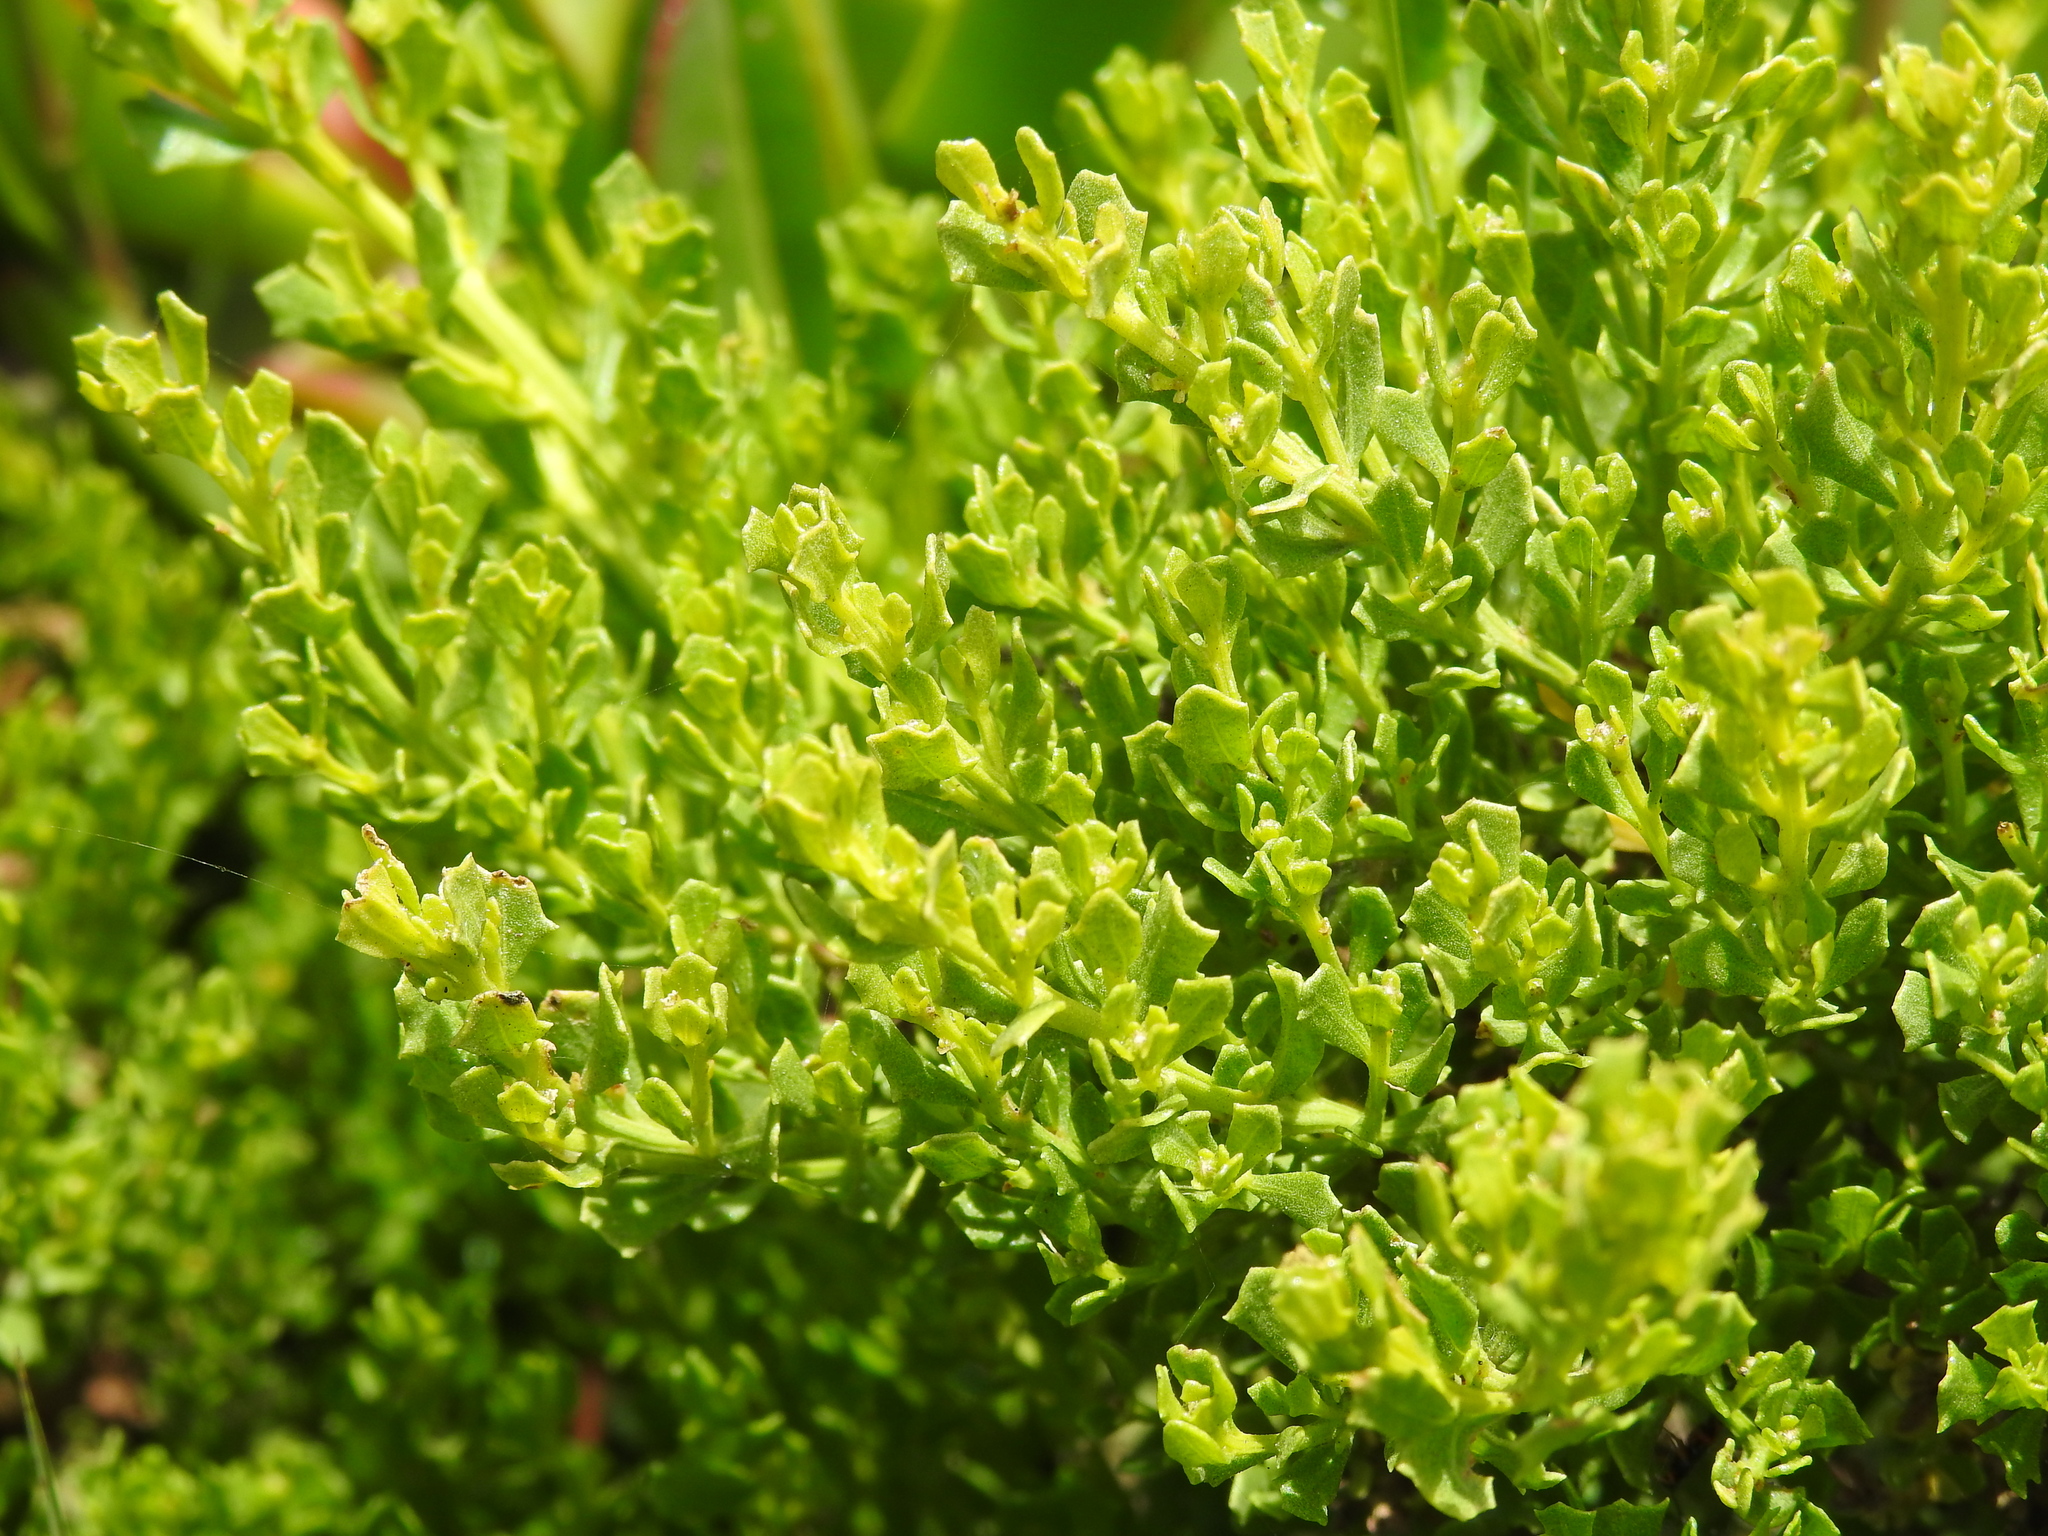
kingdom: Plantae
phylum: Tracheophyta
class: Magnoliopsida
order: Asterales
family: Asteraceae
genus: Baccharis
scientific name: Baccharis pilularis
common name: Coyotebrush
